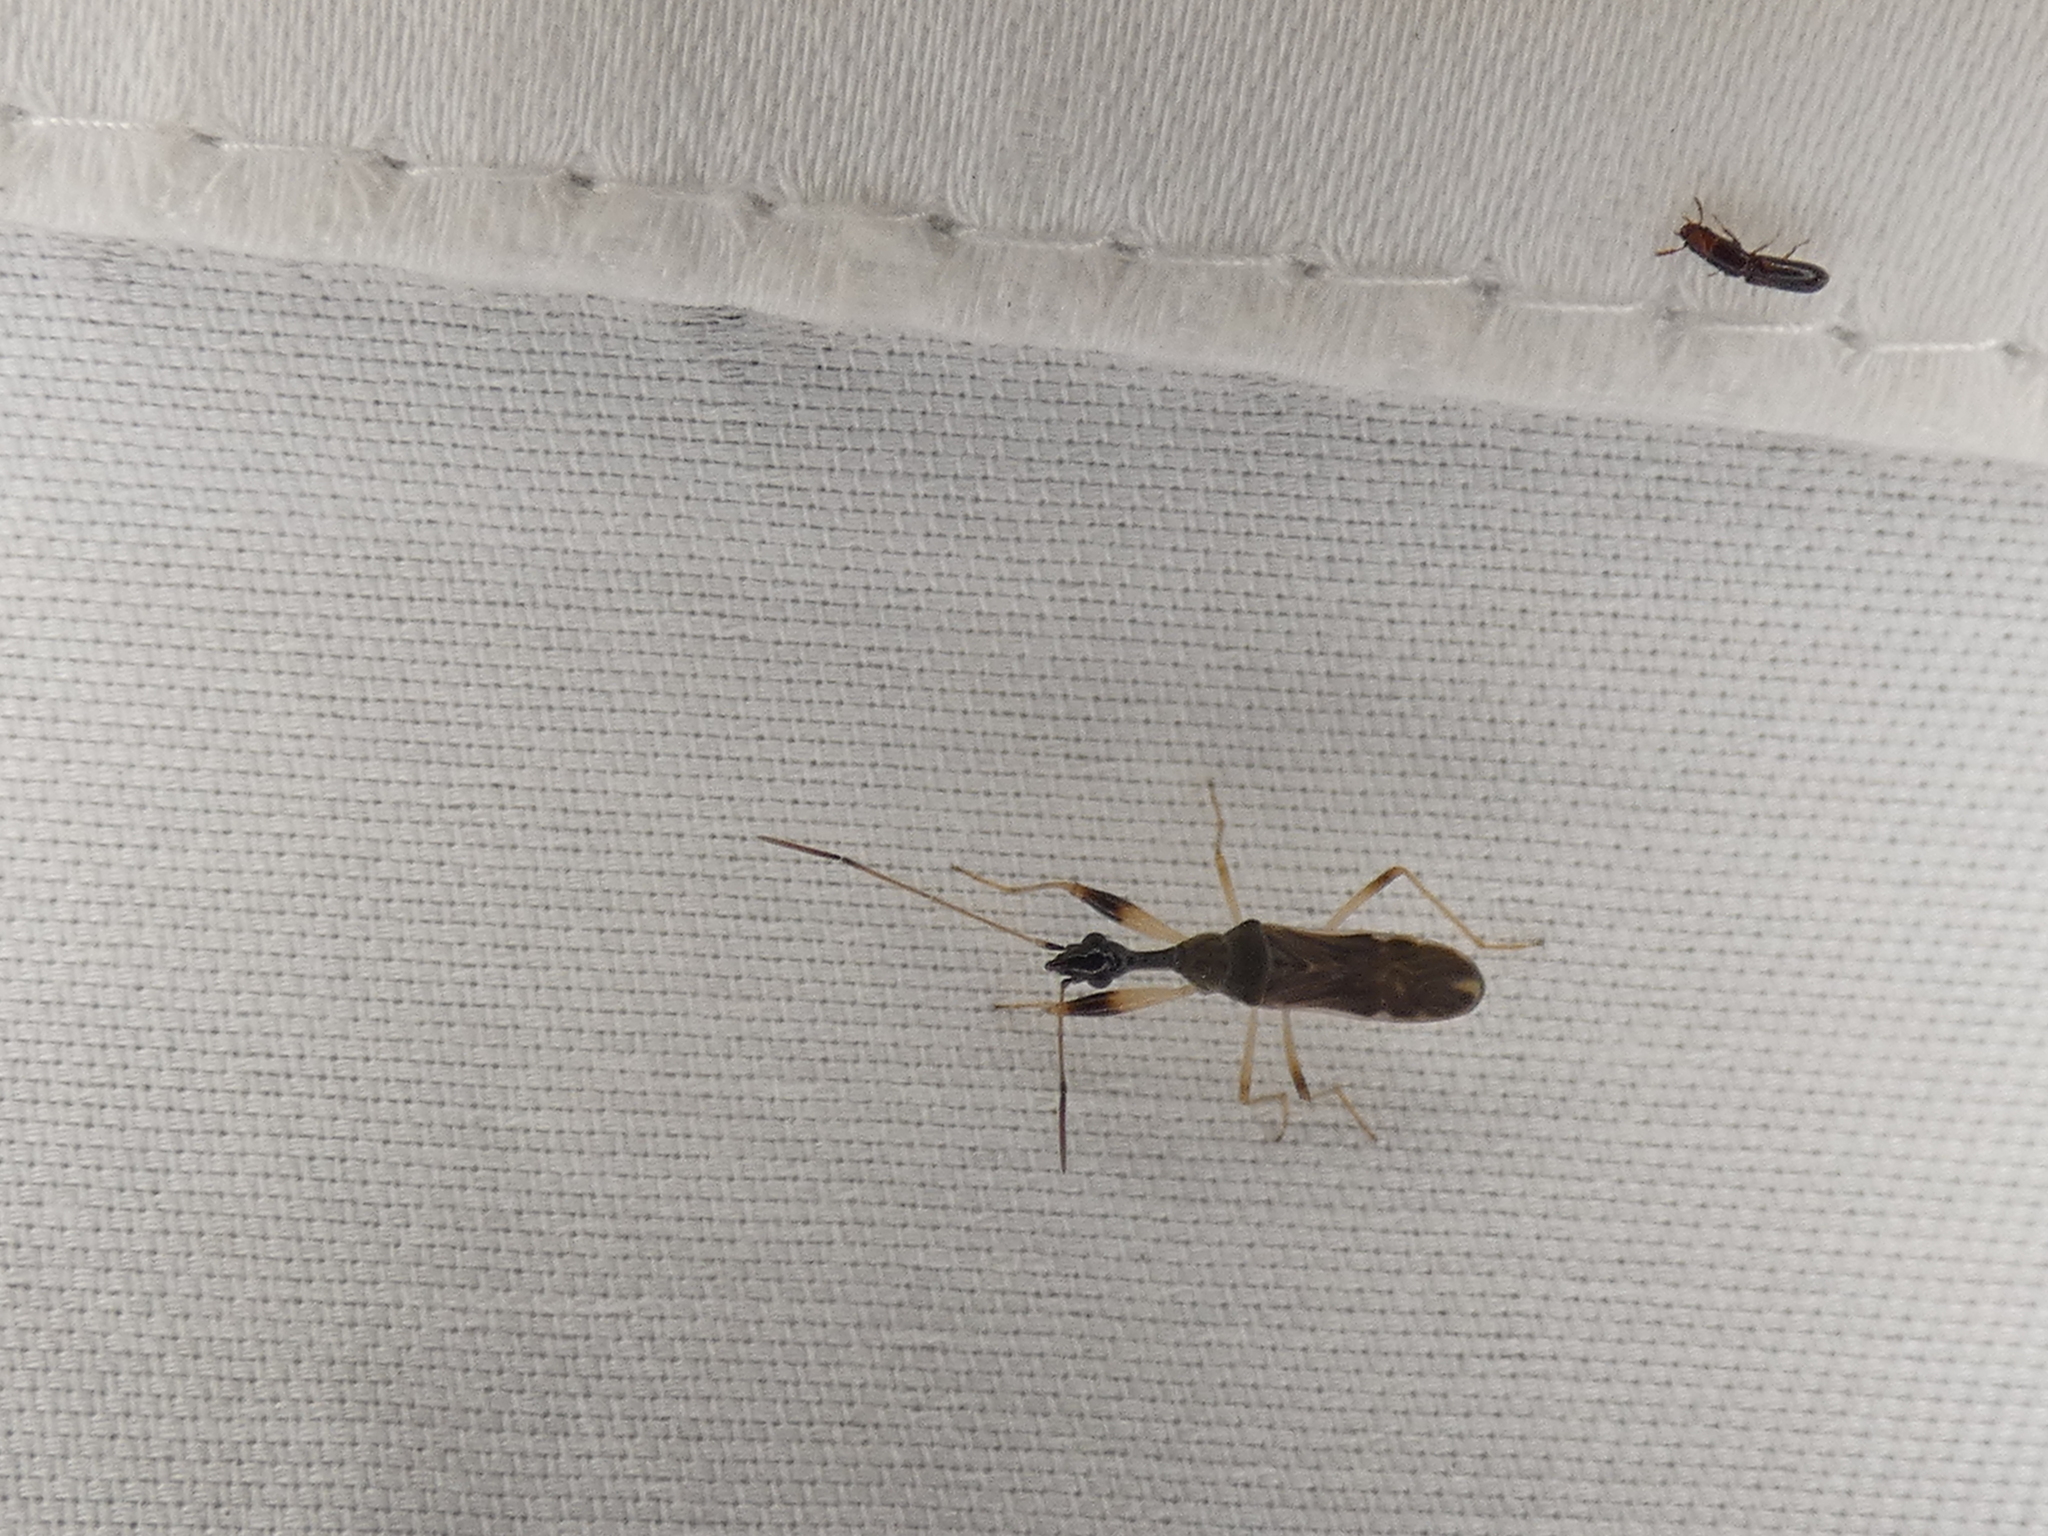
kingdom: Animalia
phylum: Arthropoda
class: Insecta
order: Hemiptera
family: Rhyparochromidae
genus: Myodocha
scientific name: Myodocha serripes
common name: Long-necked seed bug
